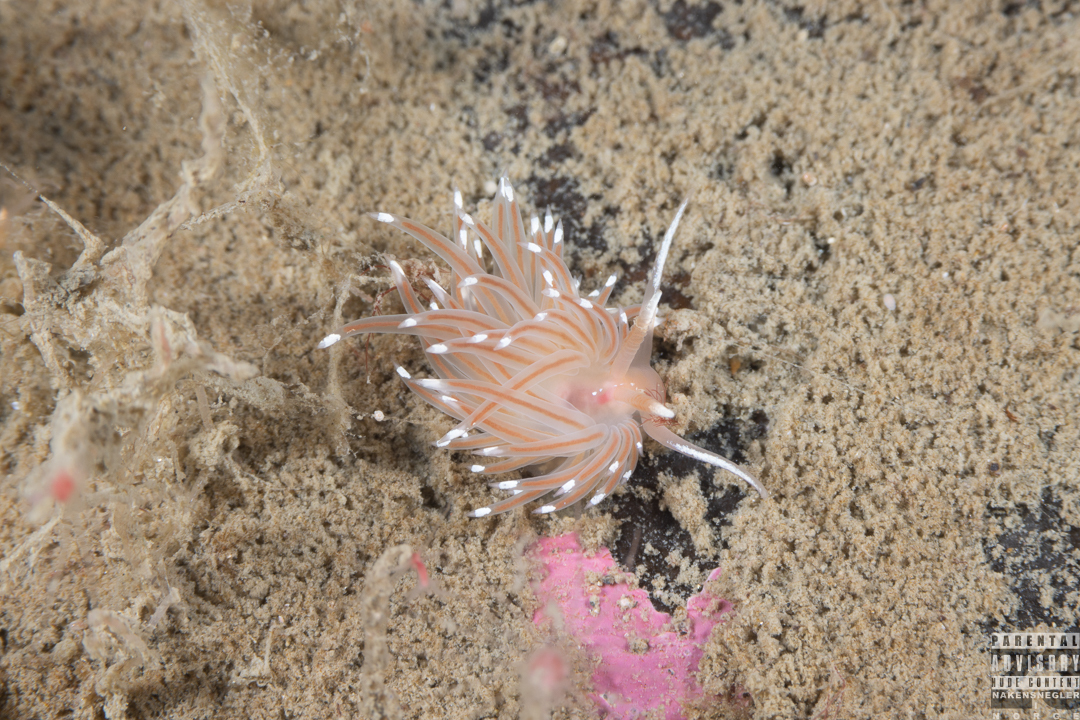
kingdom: Animalia
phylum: Mollusca
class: Gastropoda
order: Nudibranchia
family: Facelinidae
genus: Facelina
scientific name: Facelina bostoniensis
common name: Boston facelina
